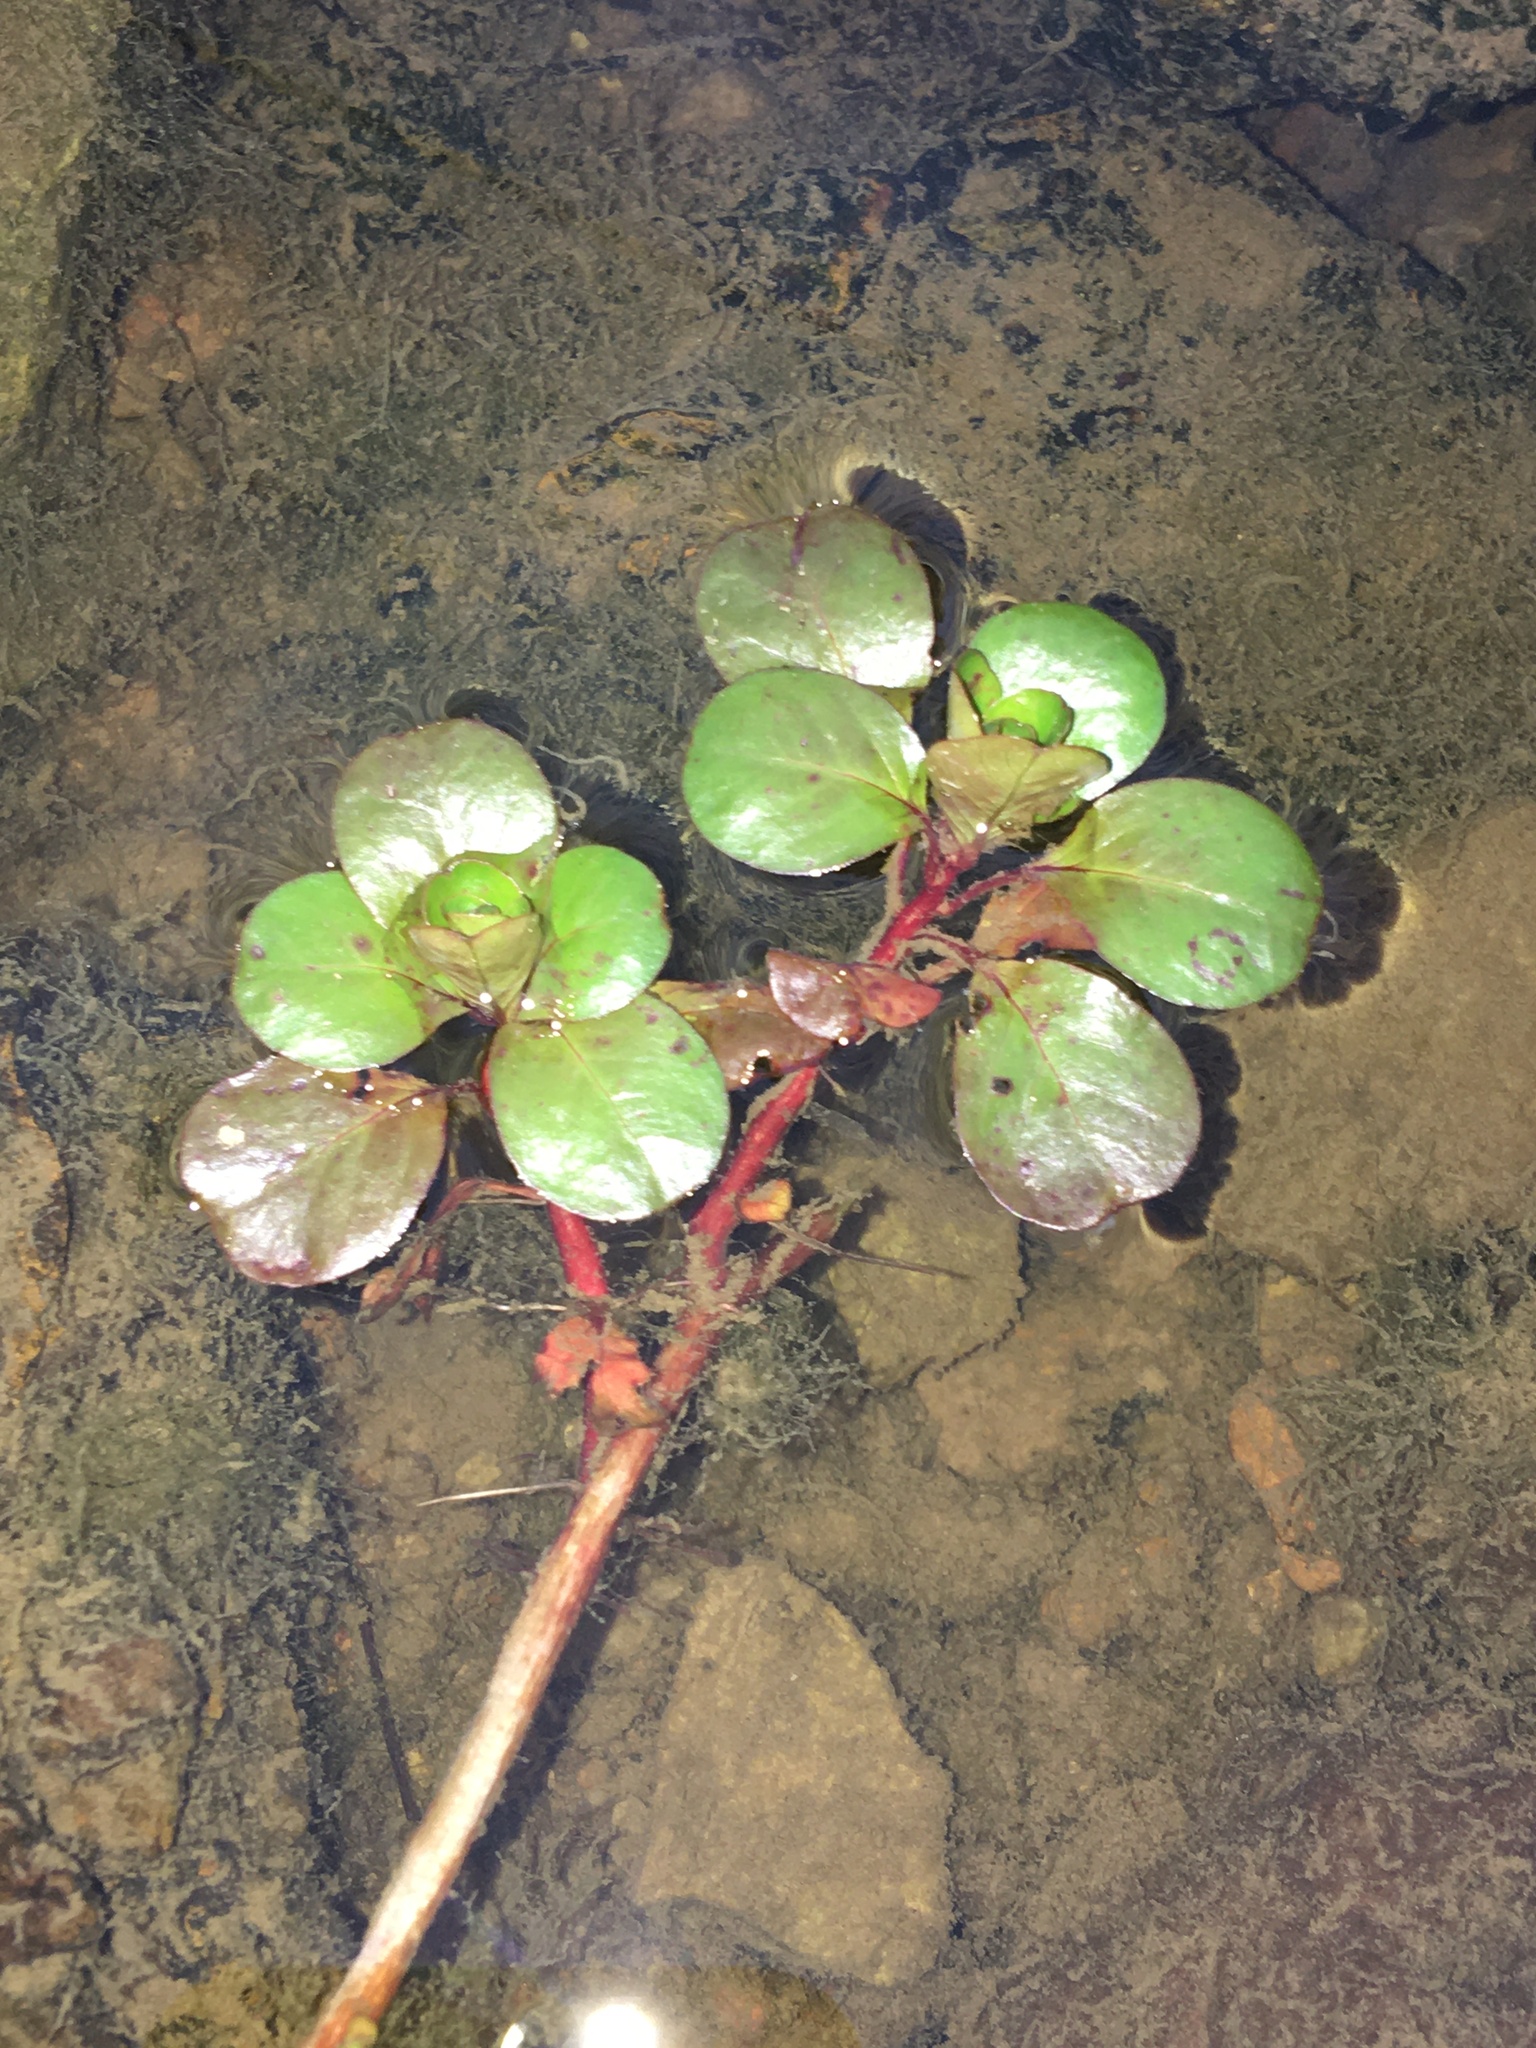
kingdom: Plantae
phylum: Tracheophyta
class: Magnoliopsida
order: Myrtales
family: Onagraceae
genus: Ludwigia
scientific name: Ludwigia peploides
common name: Floating primrose-willow
